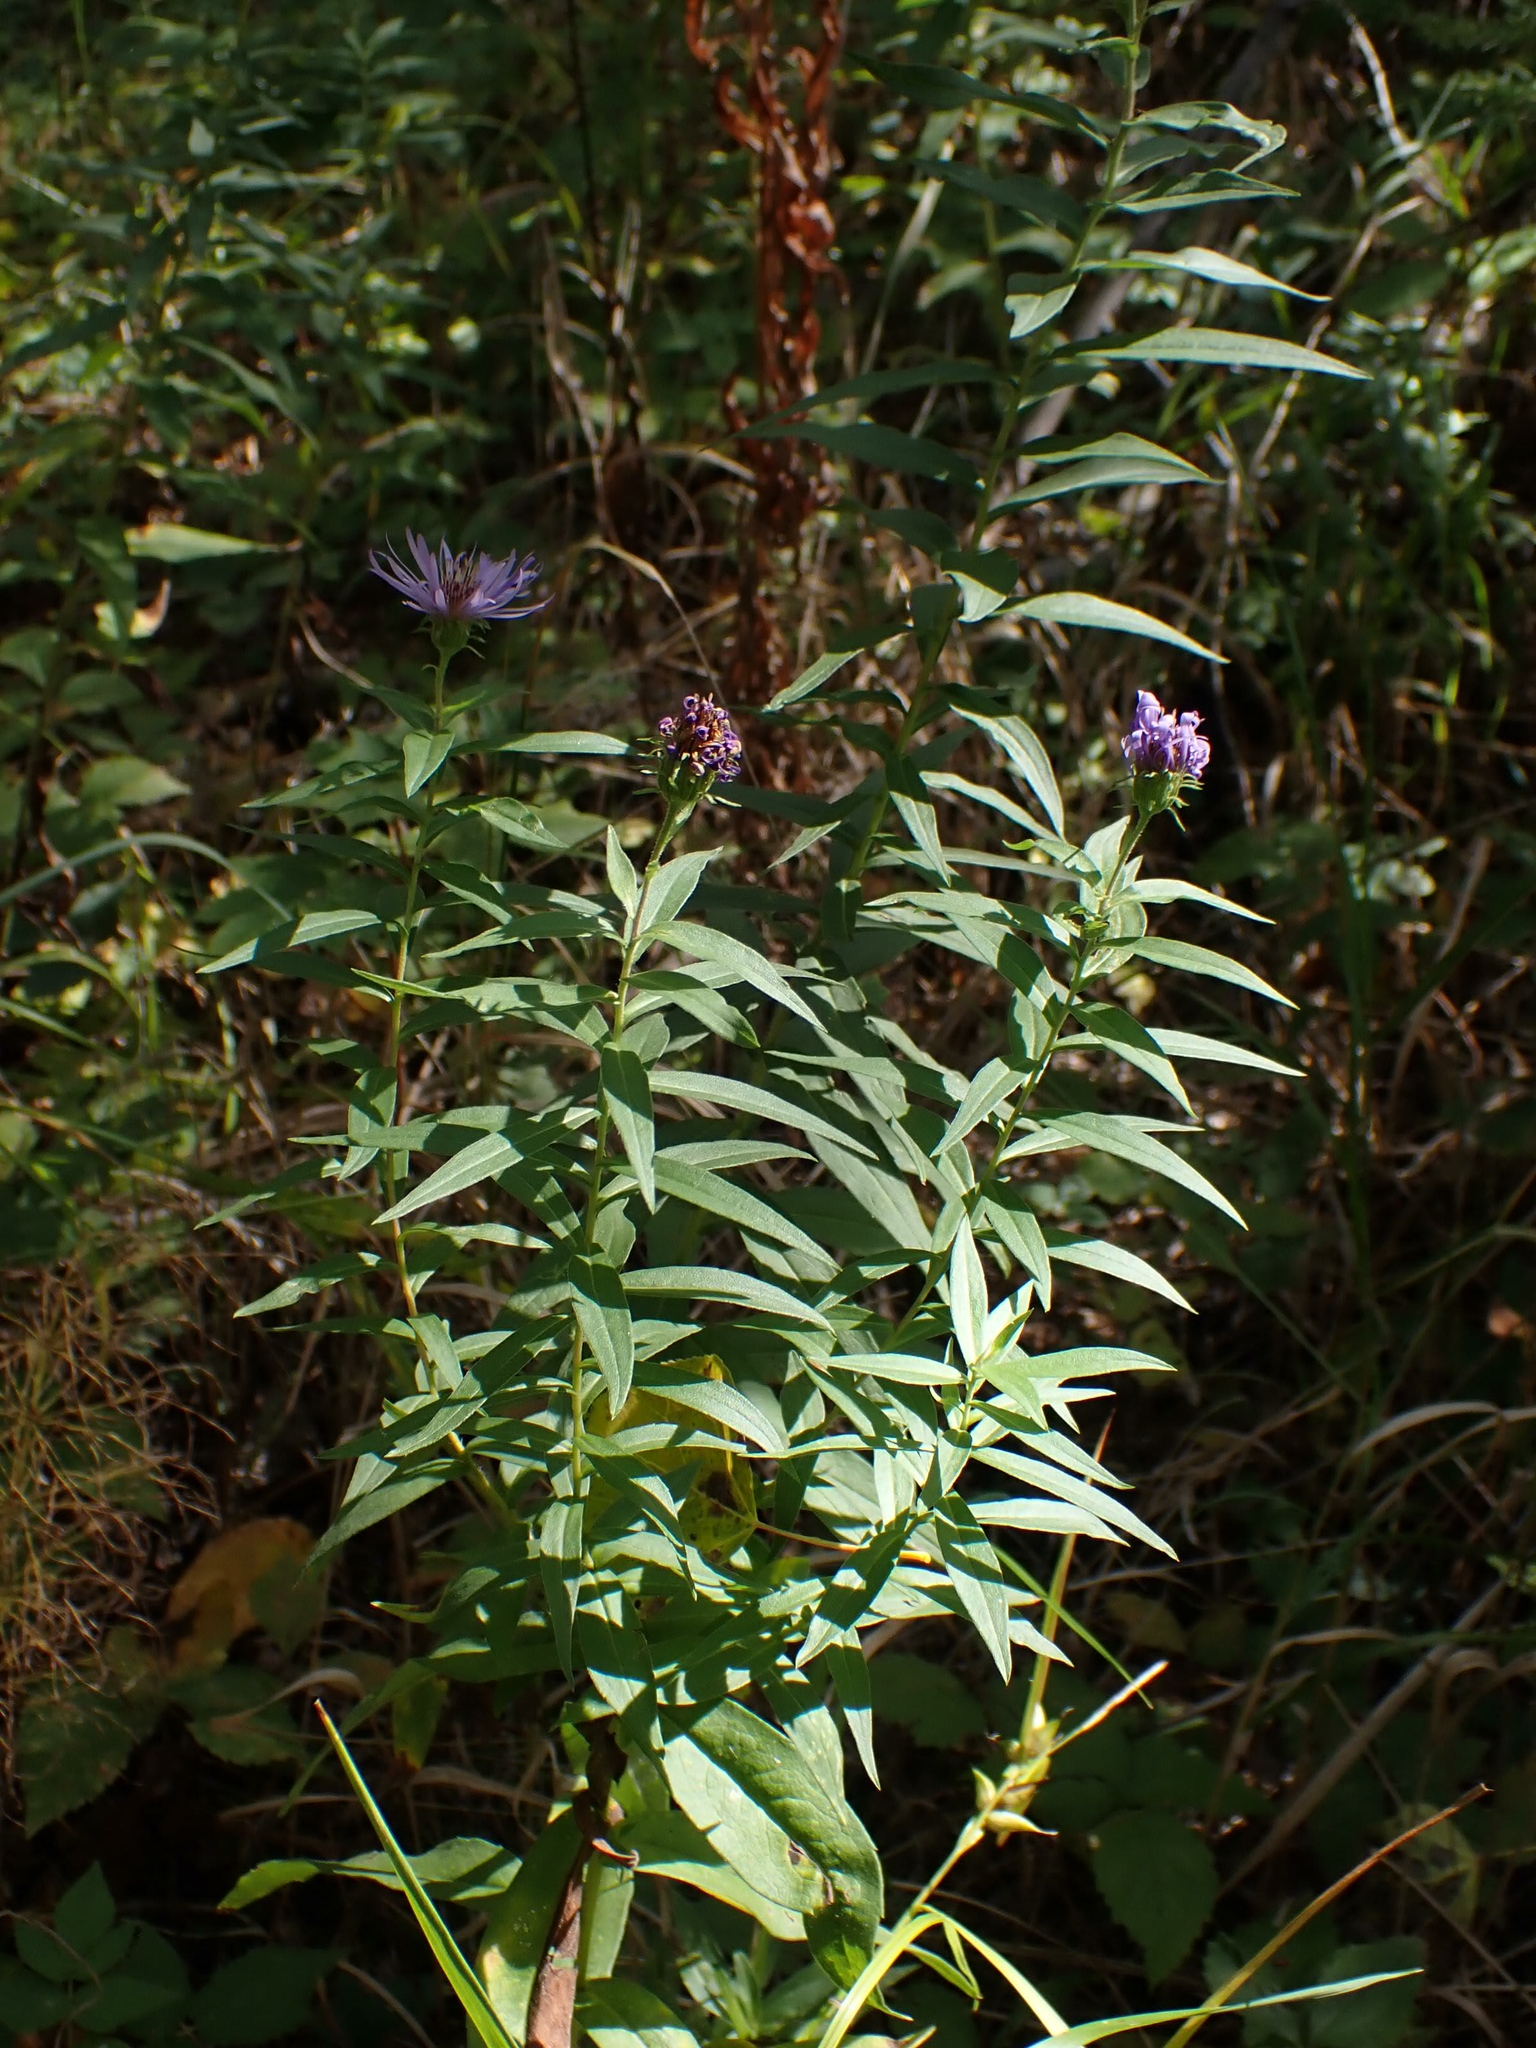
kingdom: Plantae
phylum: Tracheophyta
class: Magnoliopsida
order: Asterales
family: Asteraceae
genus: Canadanthus
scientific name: Canadanthus modestus
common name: Great northern aster
